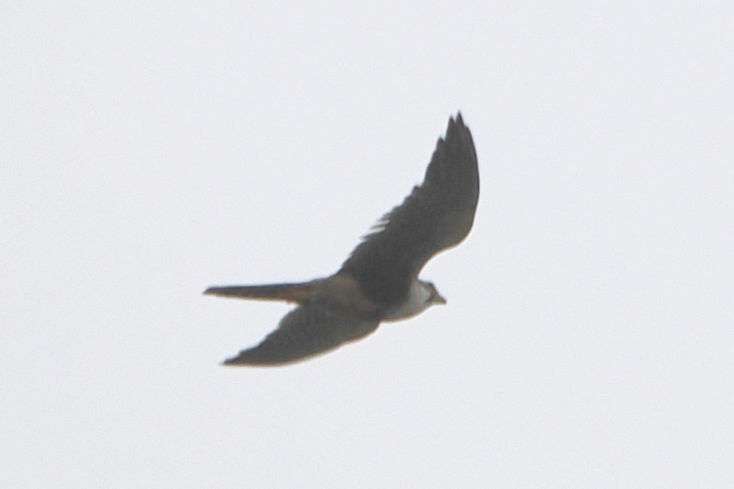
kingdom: Animalia
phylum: Chordata
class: Aves
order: Falconiformes
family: Falconidae
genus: Falco
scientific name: Falco femoralis
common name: Aplomado falcon
